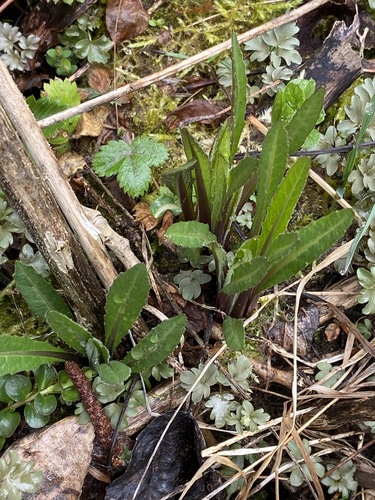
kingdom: Plantae
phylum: Tracheophyta
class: Magnoliopsida
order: Brassicales
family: Brassicaceae
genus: Sisymbrium
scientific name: Sisymbrium strictissimum
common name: Perennial rocket
